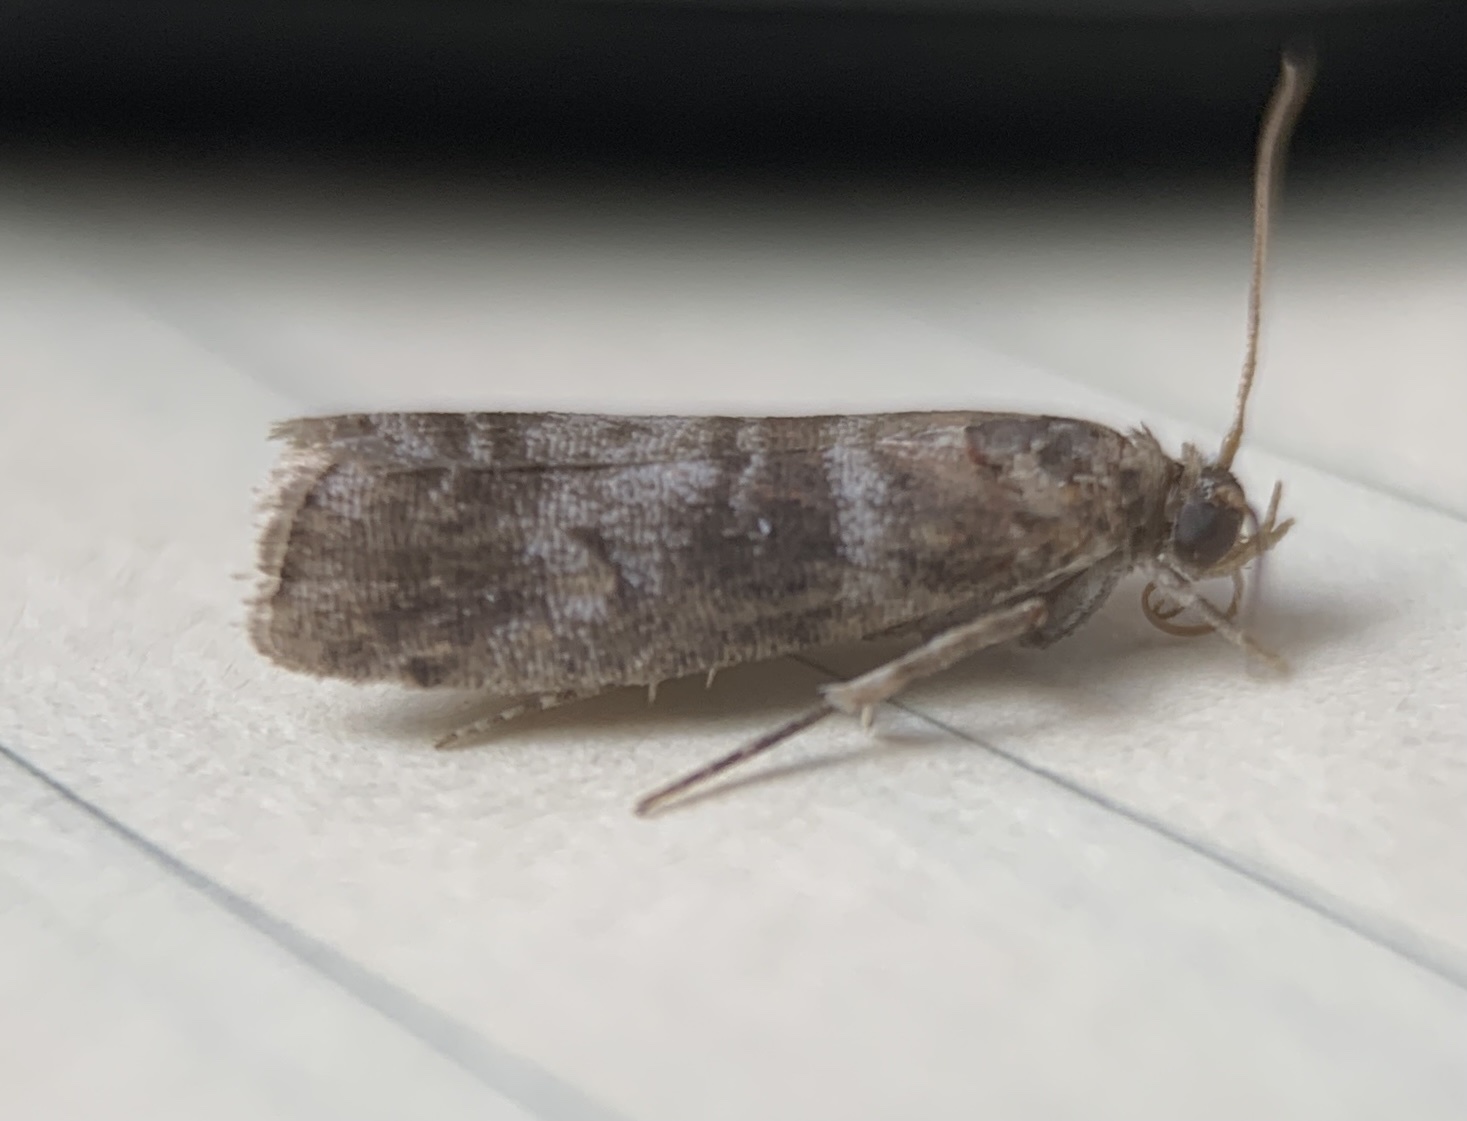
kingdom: Animalia
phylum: Arthropoda
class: Insecta
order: Lepidoptera
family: Pyralidae
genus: Sciota
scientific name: Sciota uvinella
